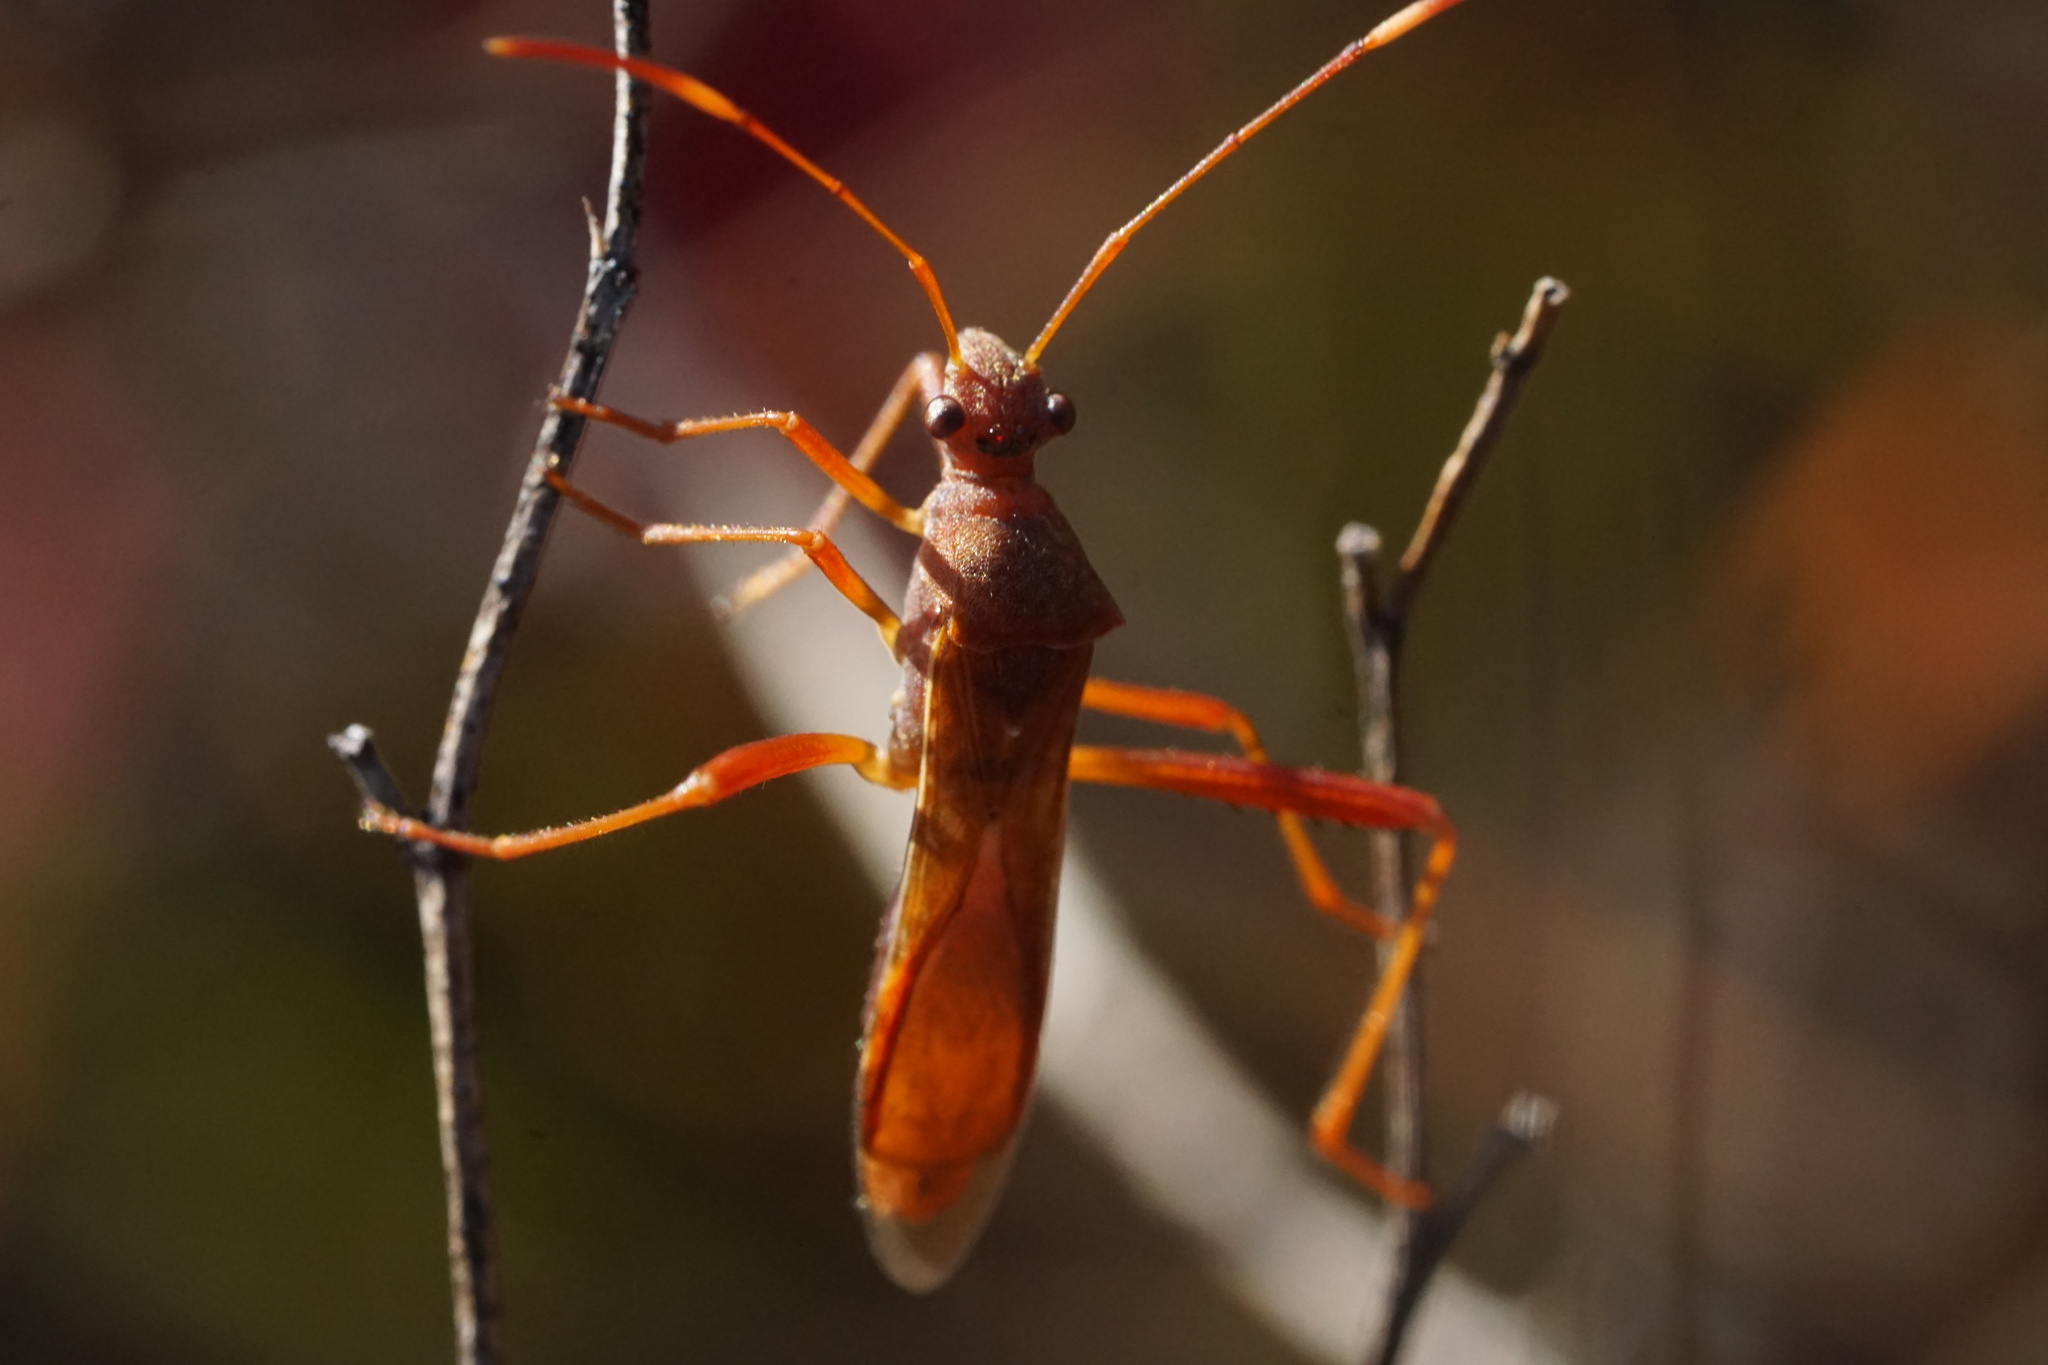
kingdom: Animalia
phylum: Arthropoda
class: Insecta
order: Hemiptera
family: Alydidae
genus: Megalotomus
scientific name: Megalotomus quinquespinosus
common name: Lupine bug
